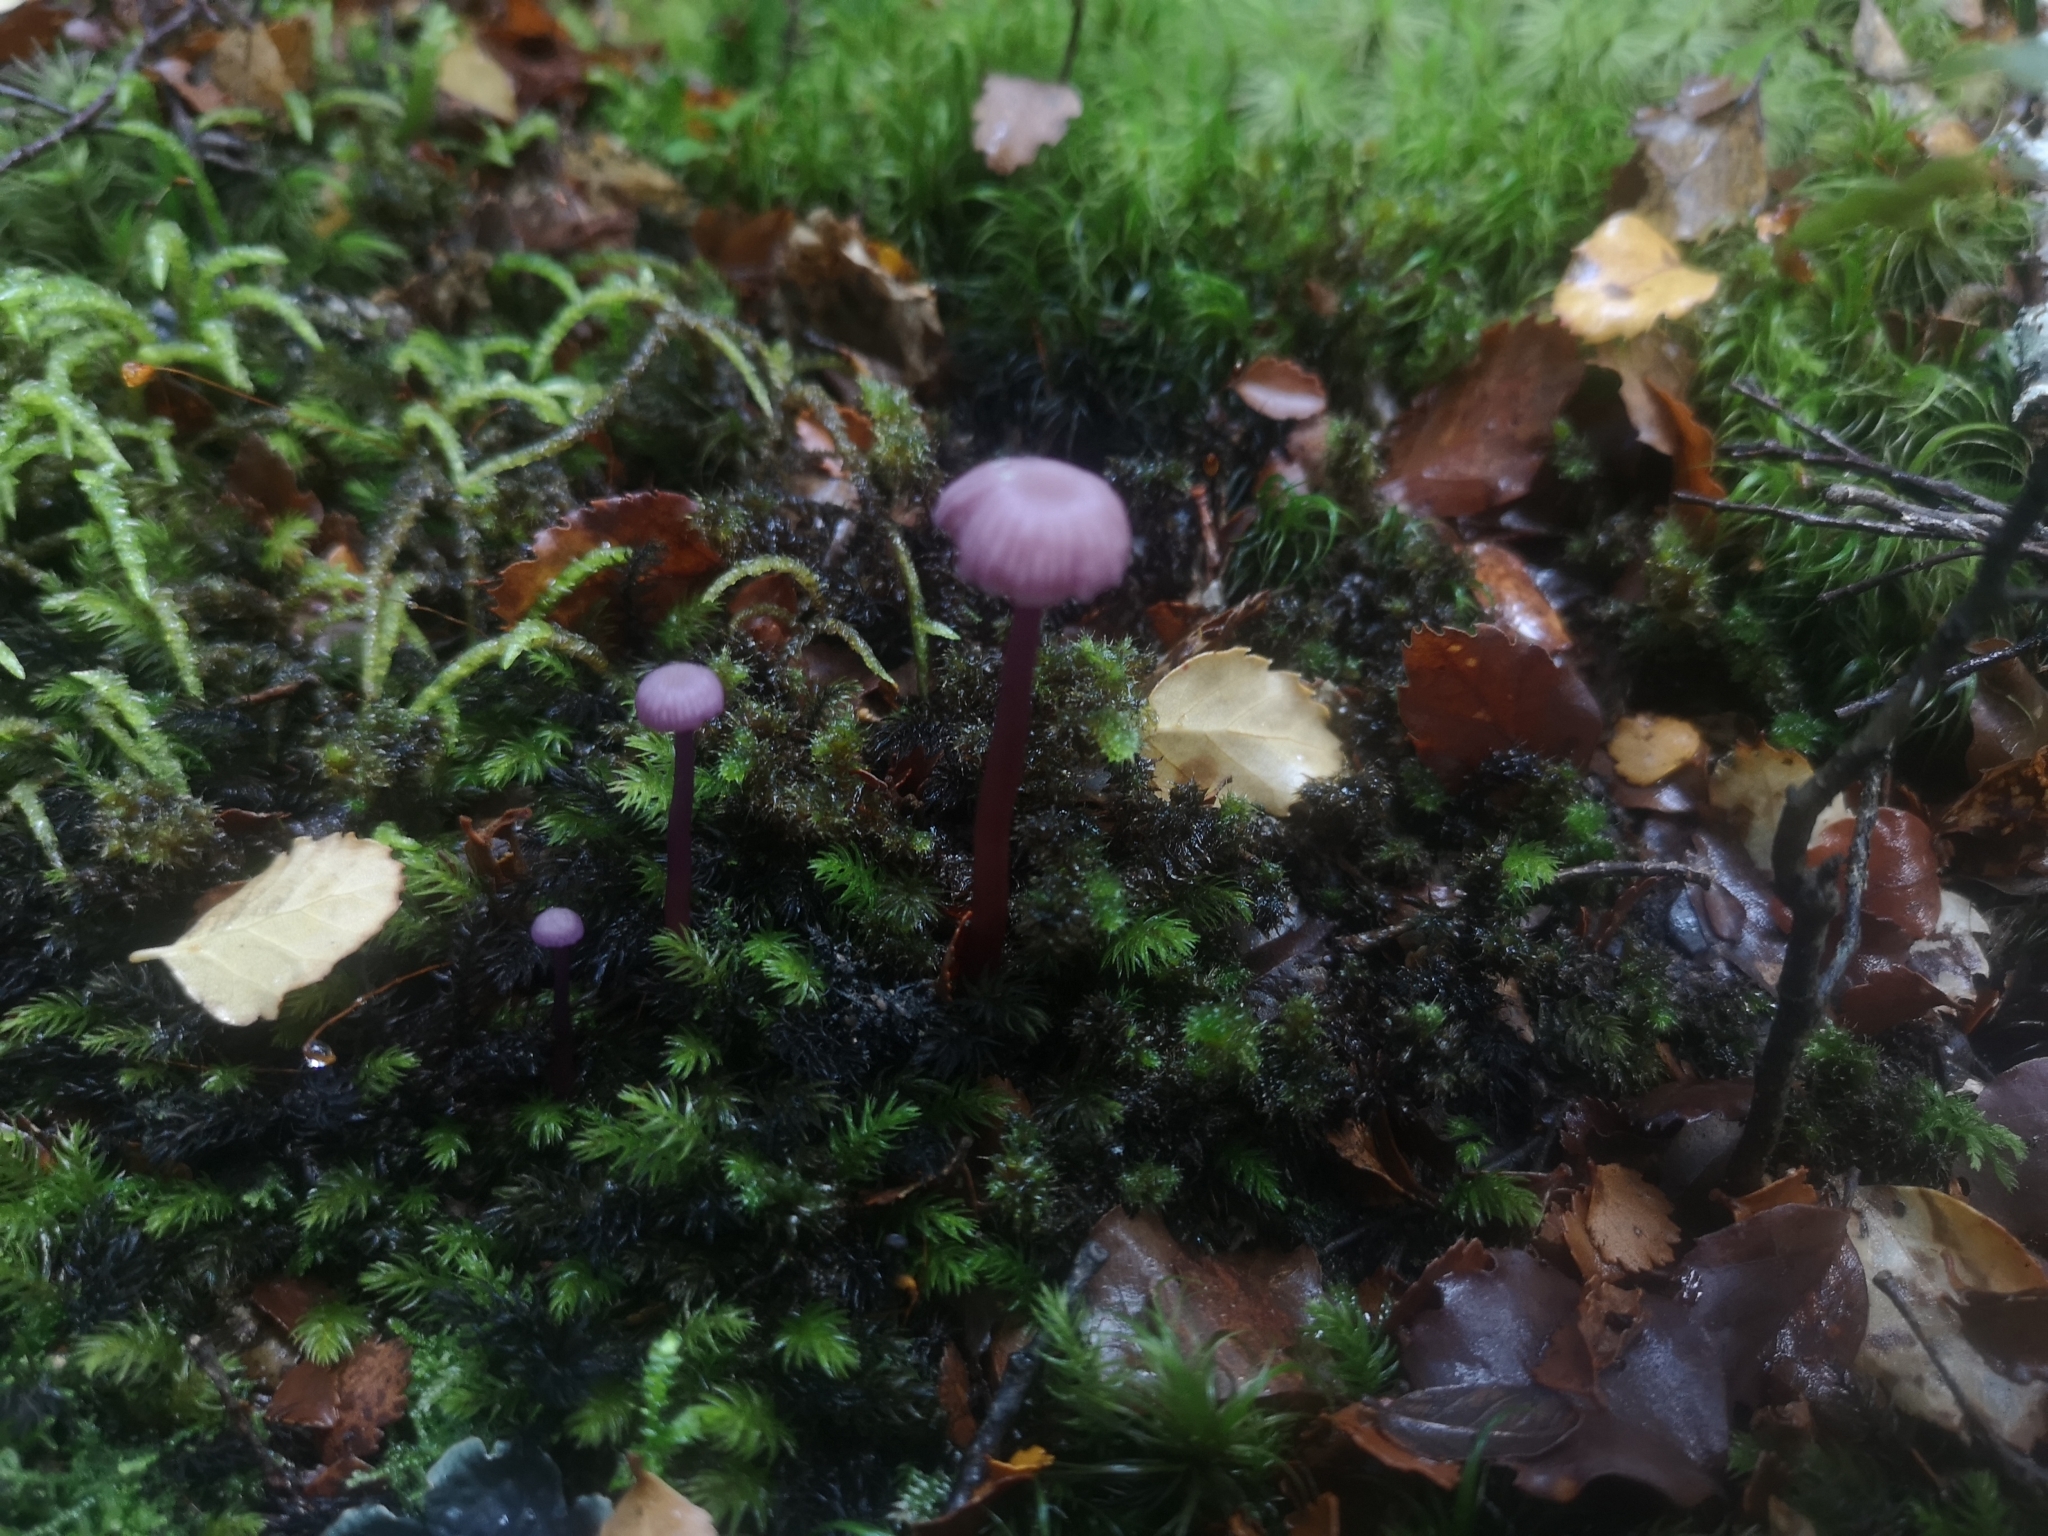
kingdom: Fungi
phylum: Basidiomycota
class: Agaricomycetes
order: Agaricales
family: Hydnangiaceae
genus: Laccaria
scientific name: Laccaria masoniae
